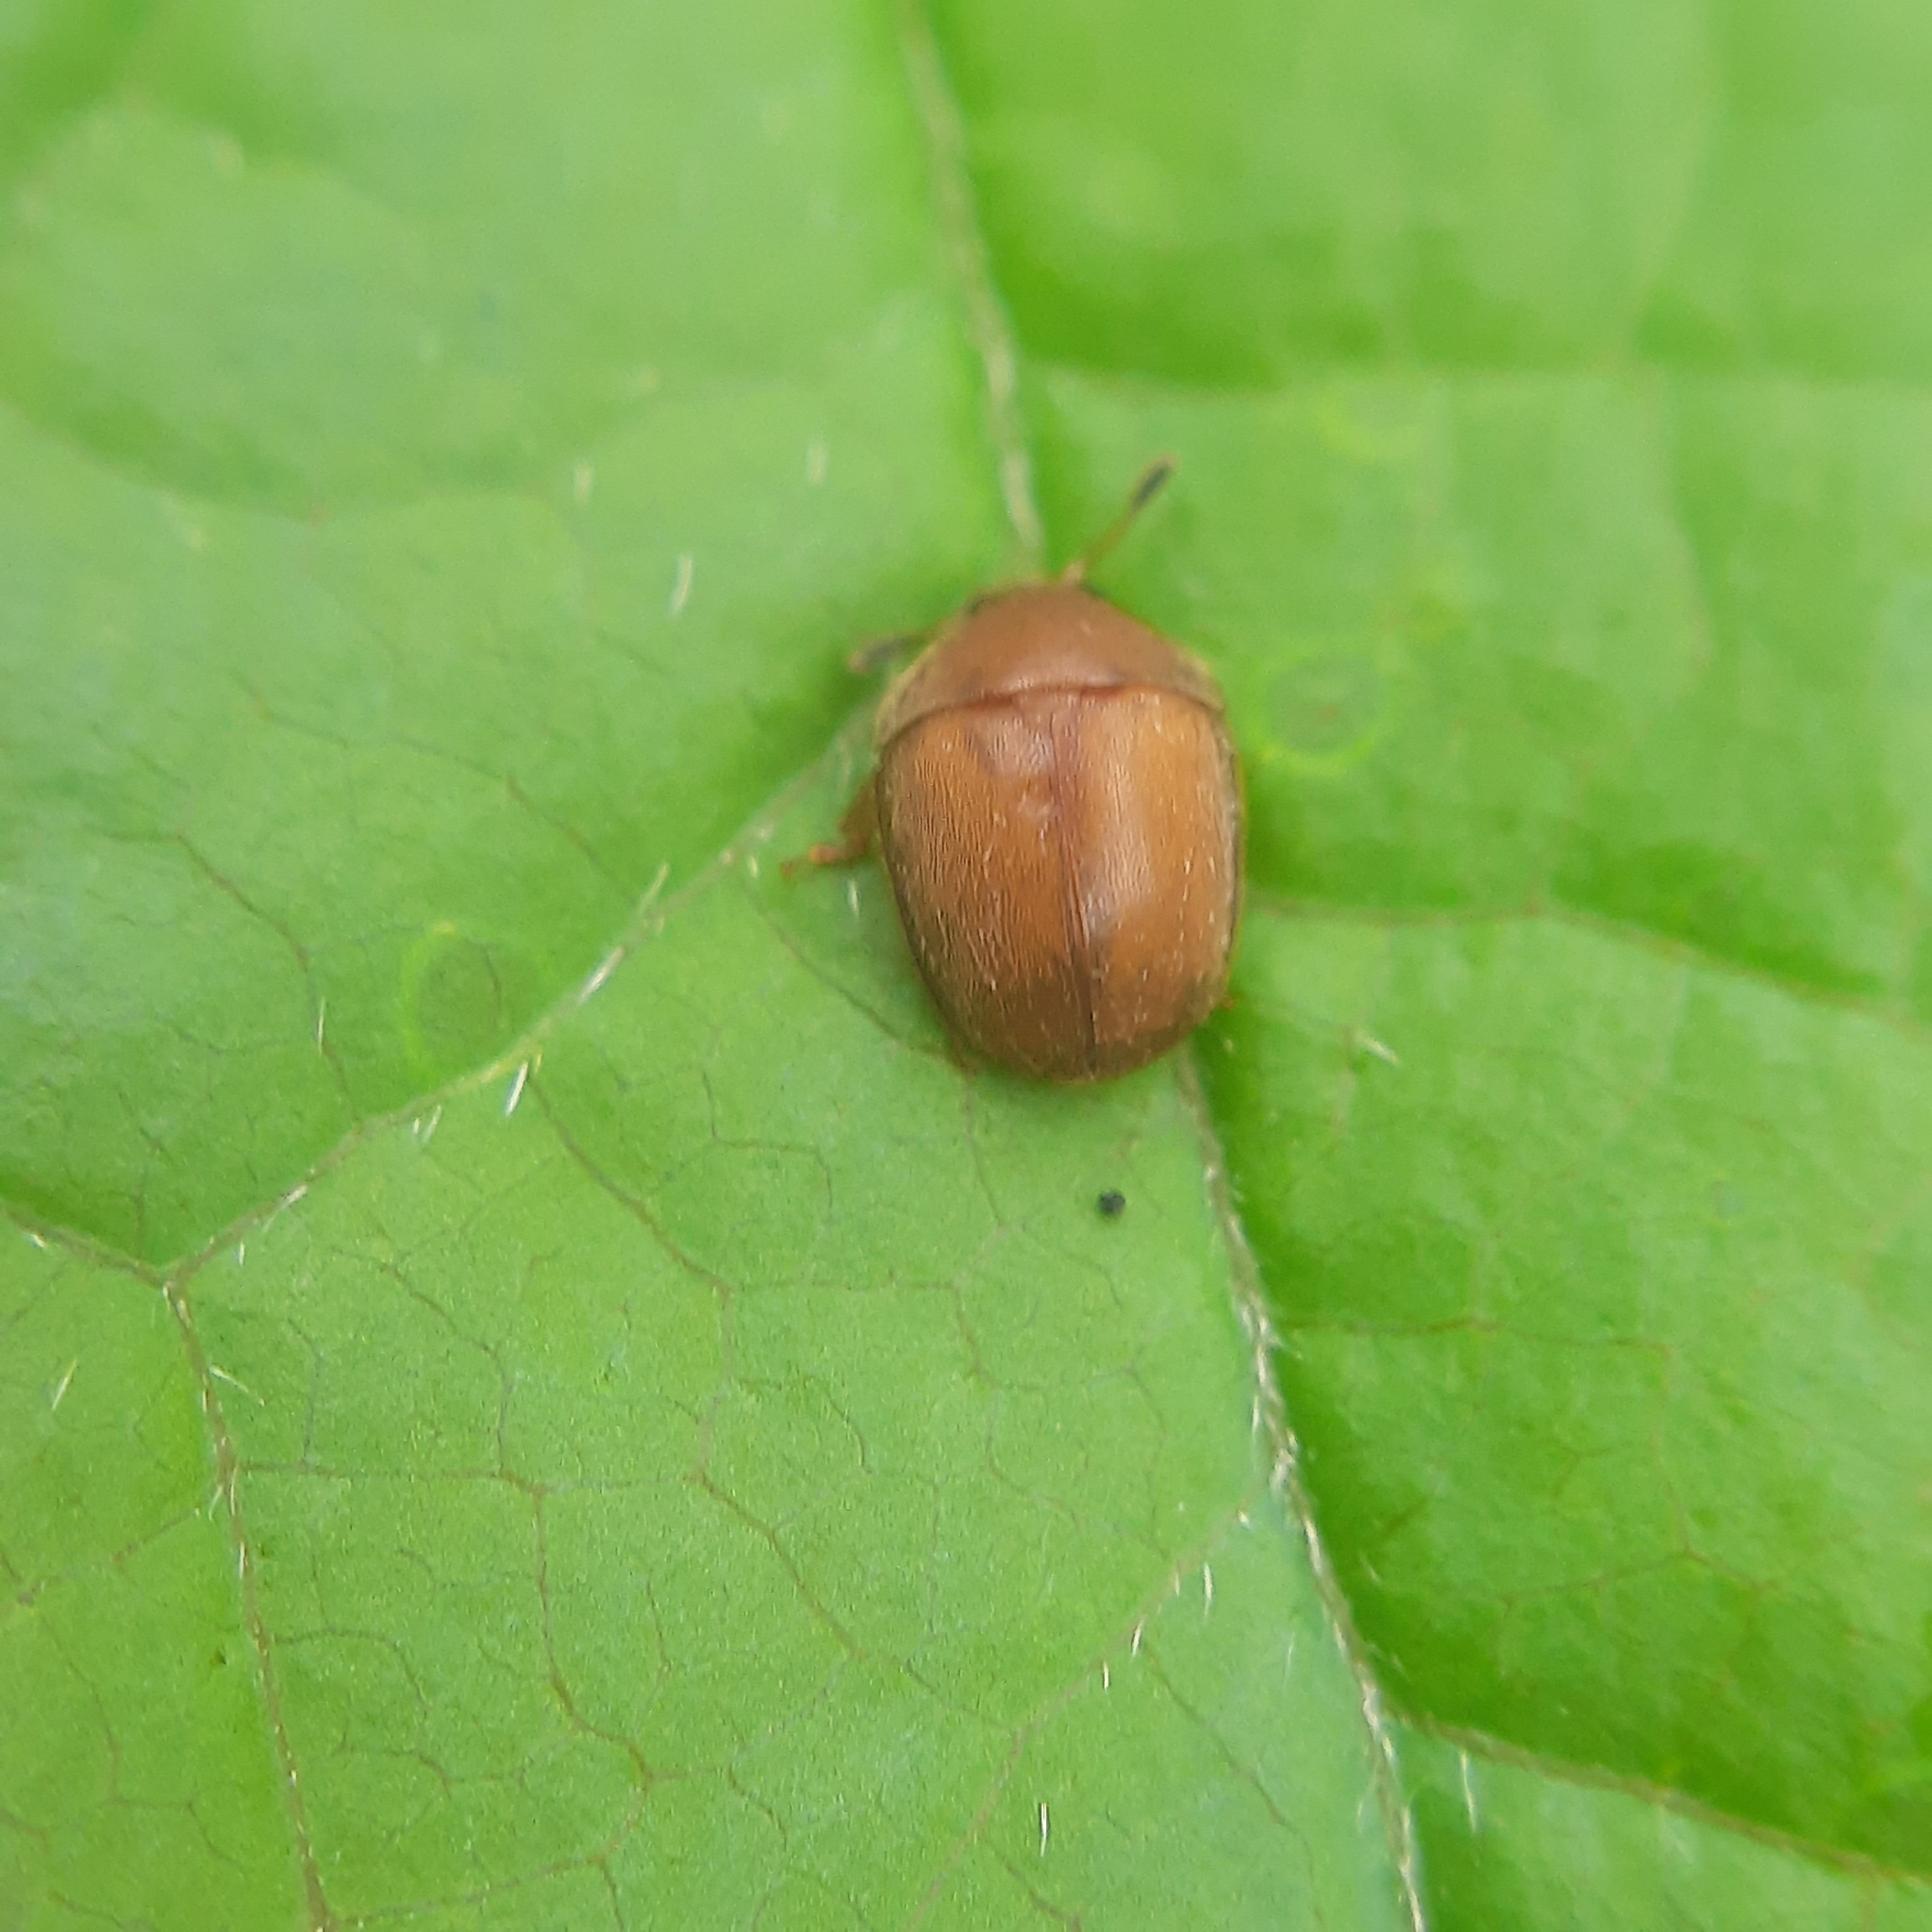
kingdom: Animalia
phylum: Arthropoda
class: Insecta
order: Coleoptera
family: Nitidulidae
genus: Cychramus
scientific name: Cychramus luteus
